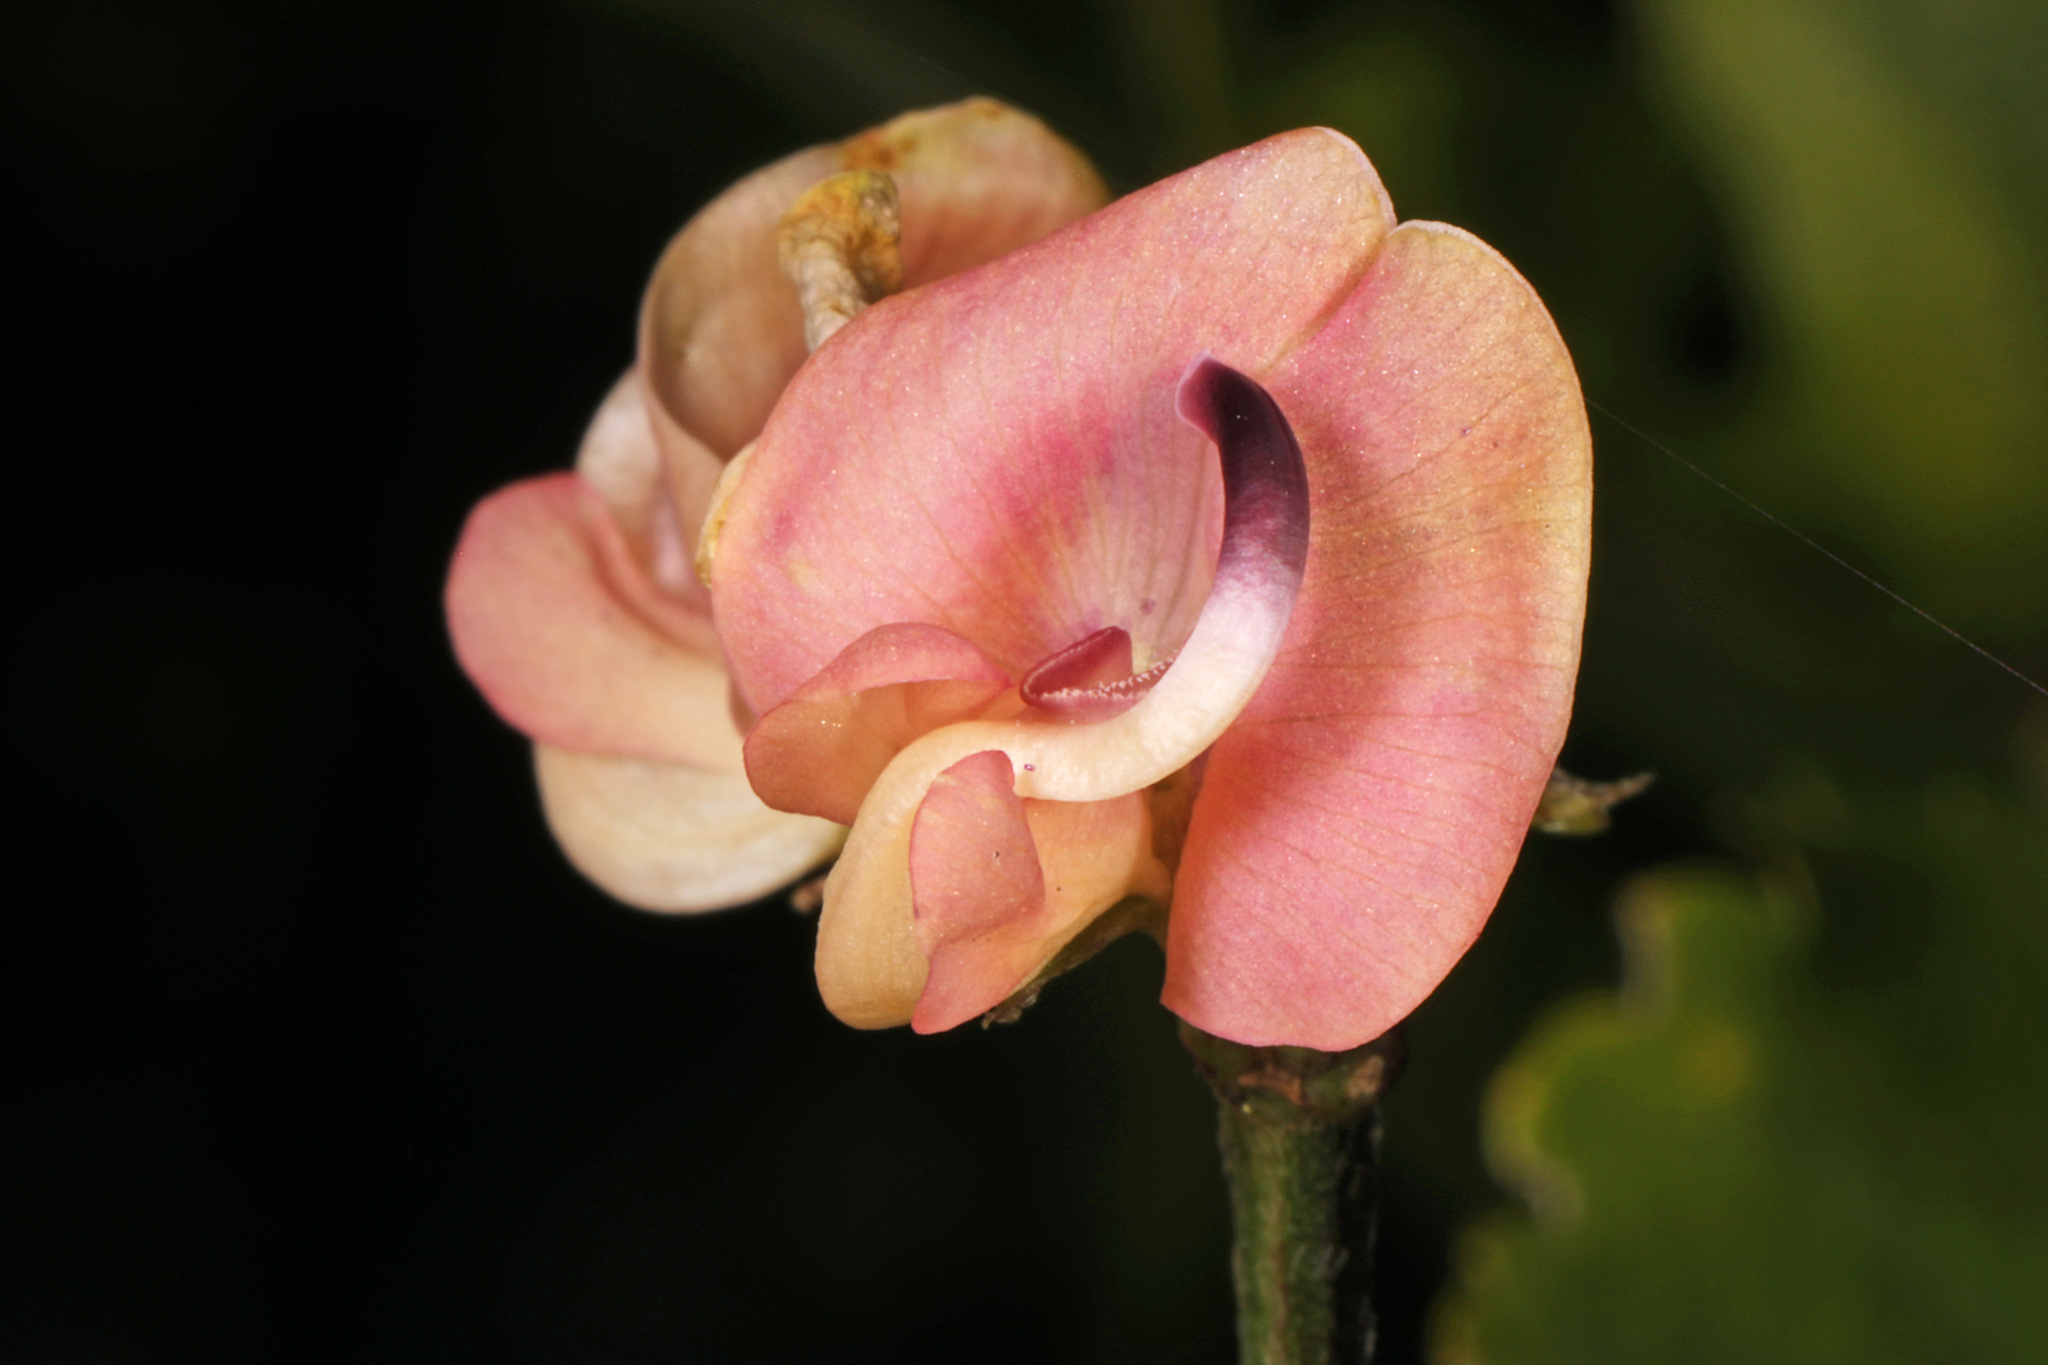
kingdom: Plantae
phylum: Tracheophyta
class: Magnoliopsida
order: Fabales
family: Fabaceae
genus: Strophostyles
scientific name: Strophostyles helvola
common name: Trailing wild bean
